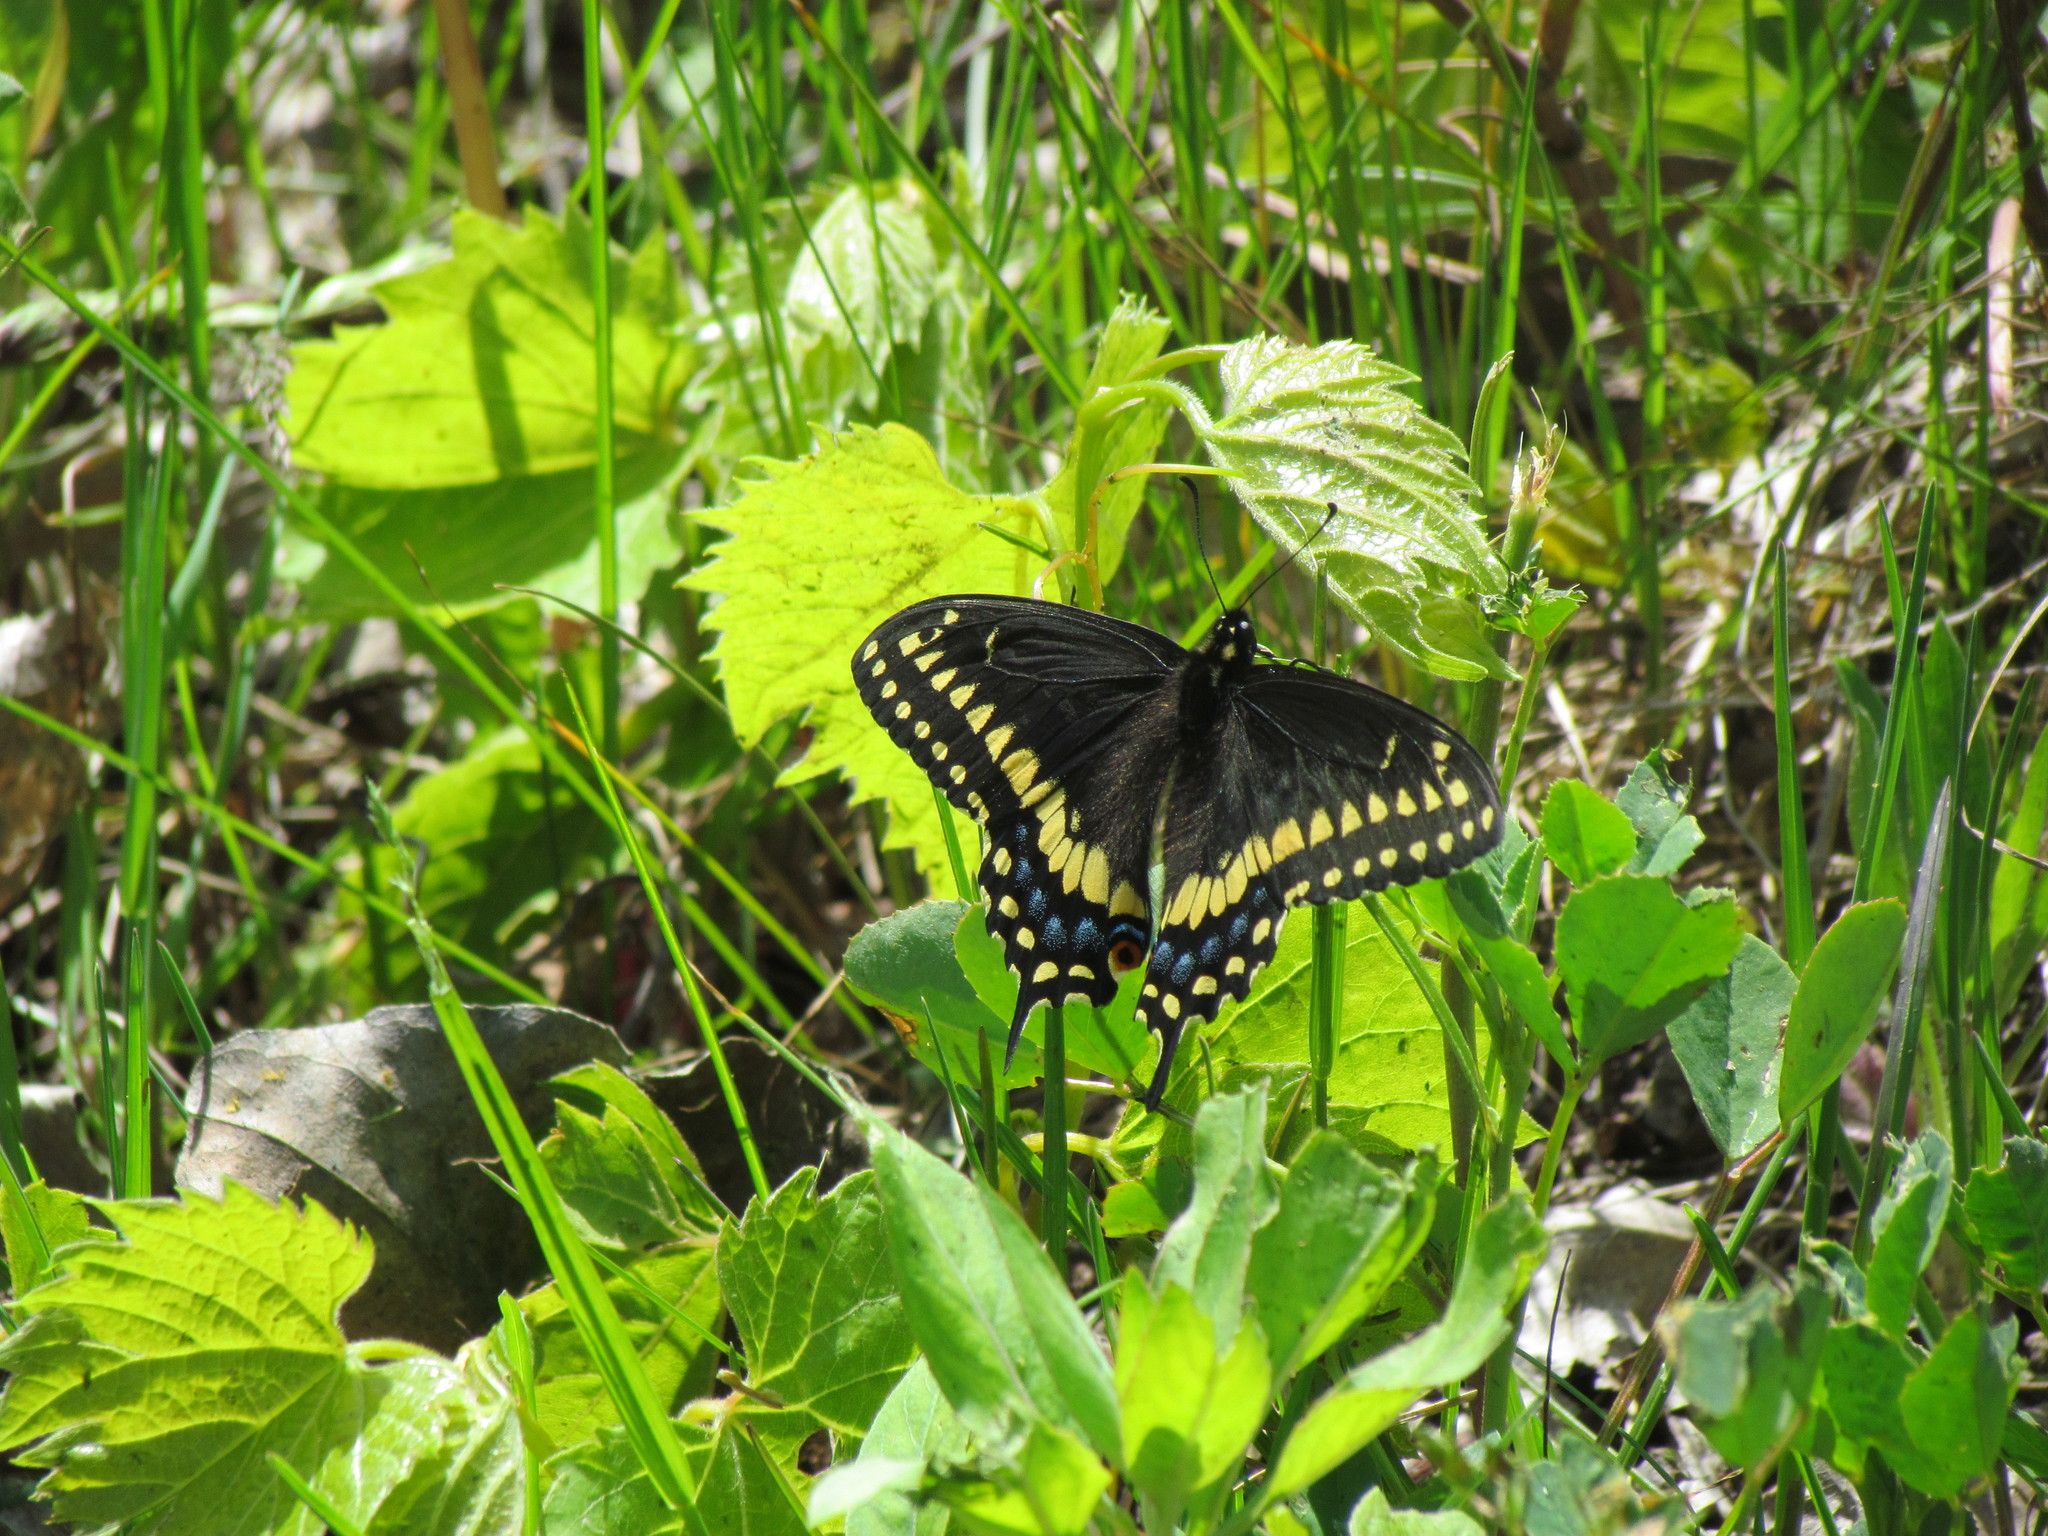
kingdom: Animalia
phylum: Arthropoda
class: Insecta
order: Lepidoptera
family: Papilionidae
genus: Papilio
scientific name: Papilio polyxenes
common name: Black swallowtail
